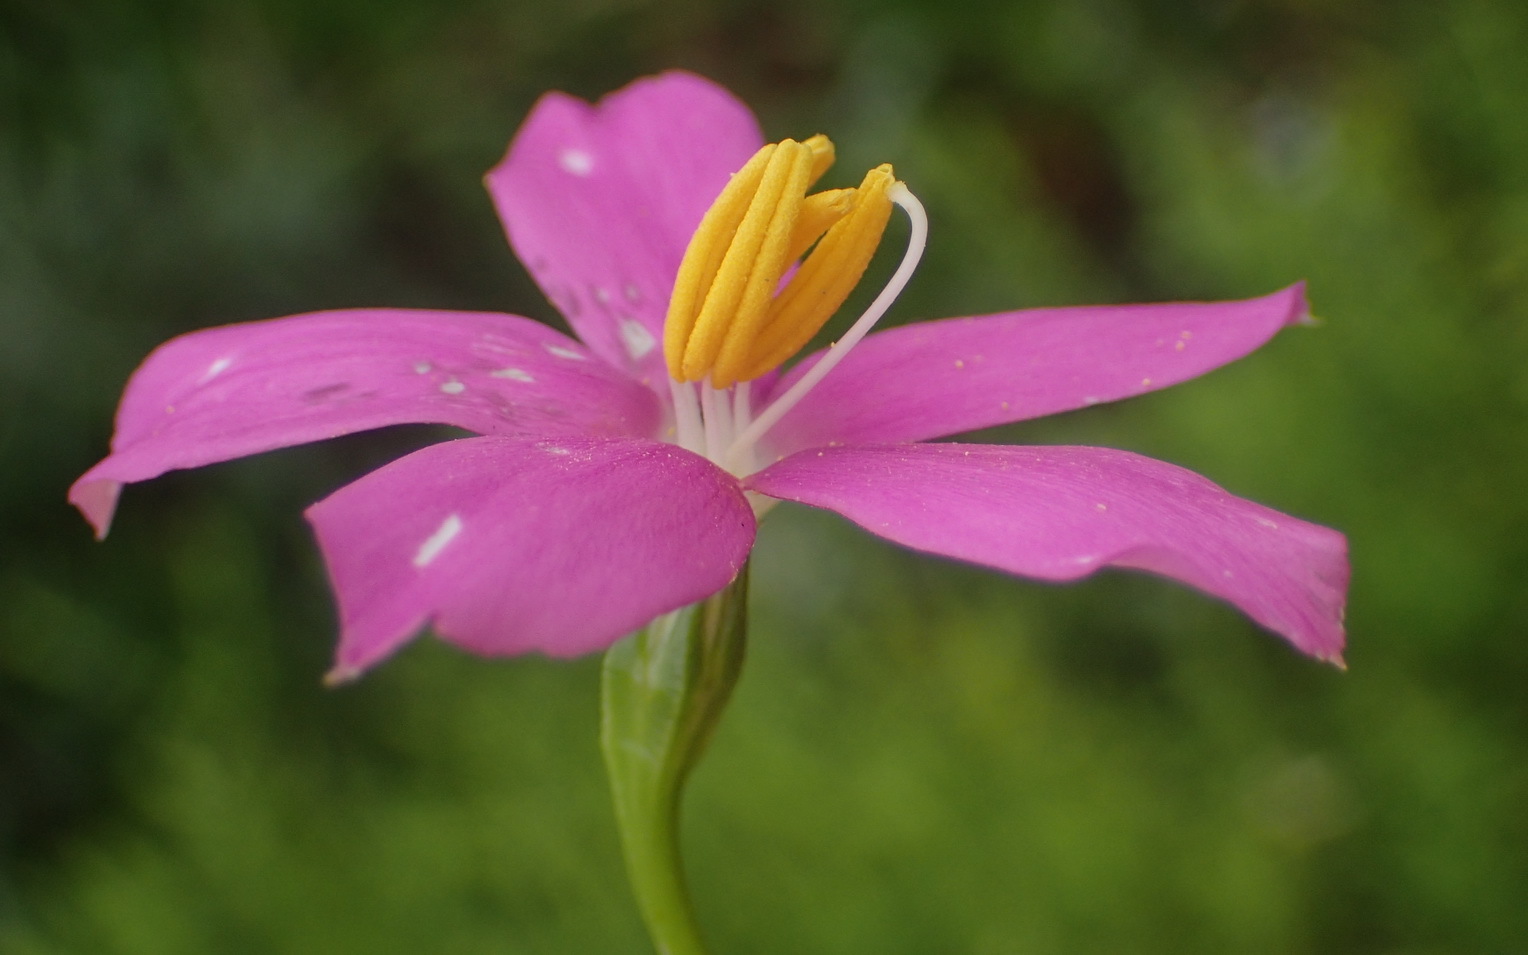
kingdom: Plantae
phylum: Tracheophyta
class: Magnoliopsida
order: Gentianales
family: Gentianaceae
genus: Chironia
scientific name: Chironia baccifera
